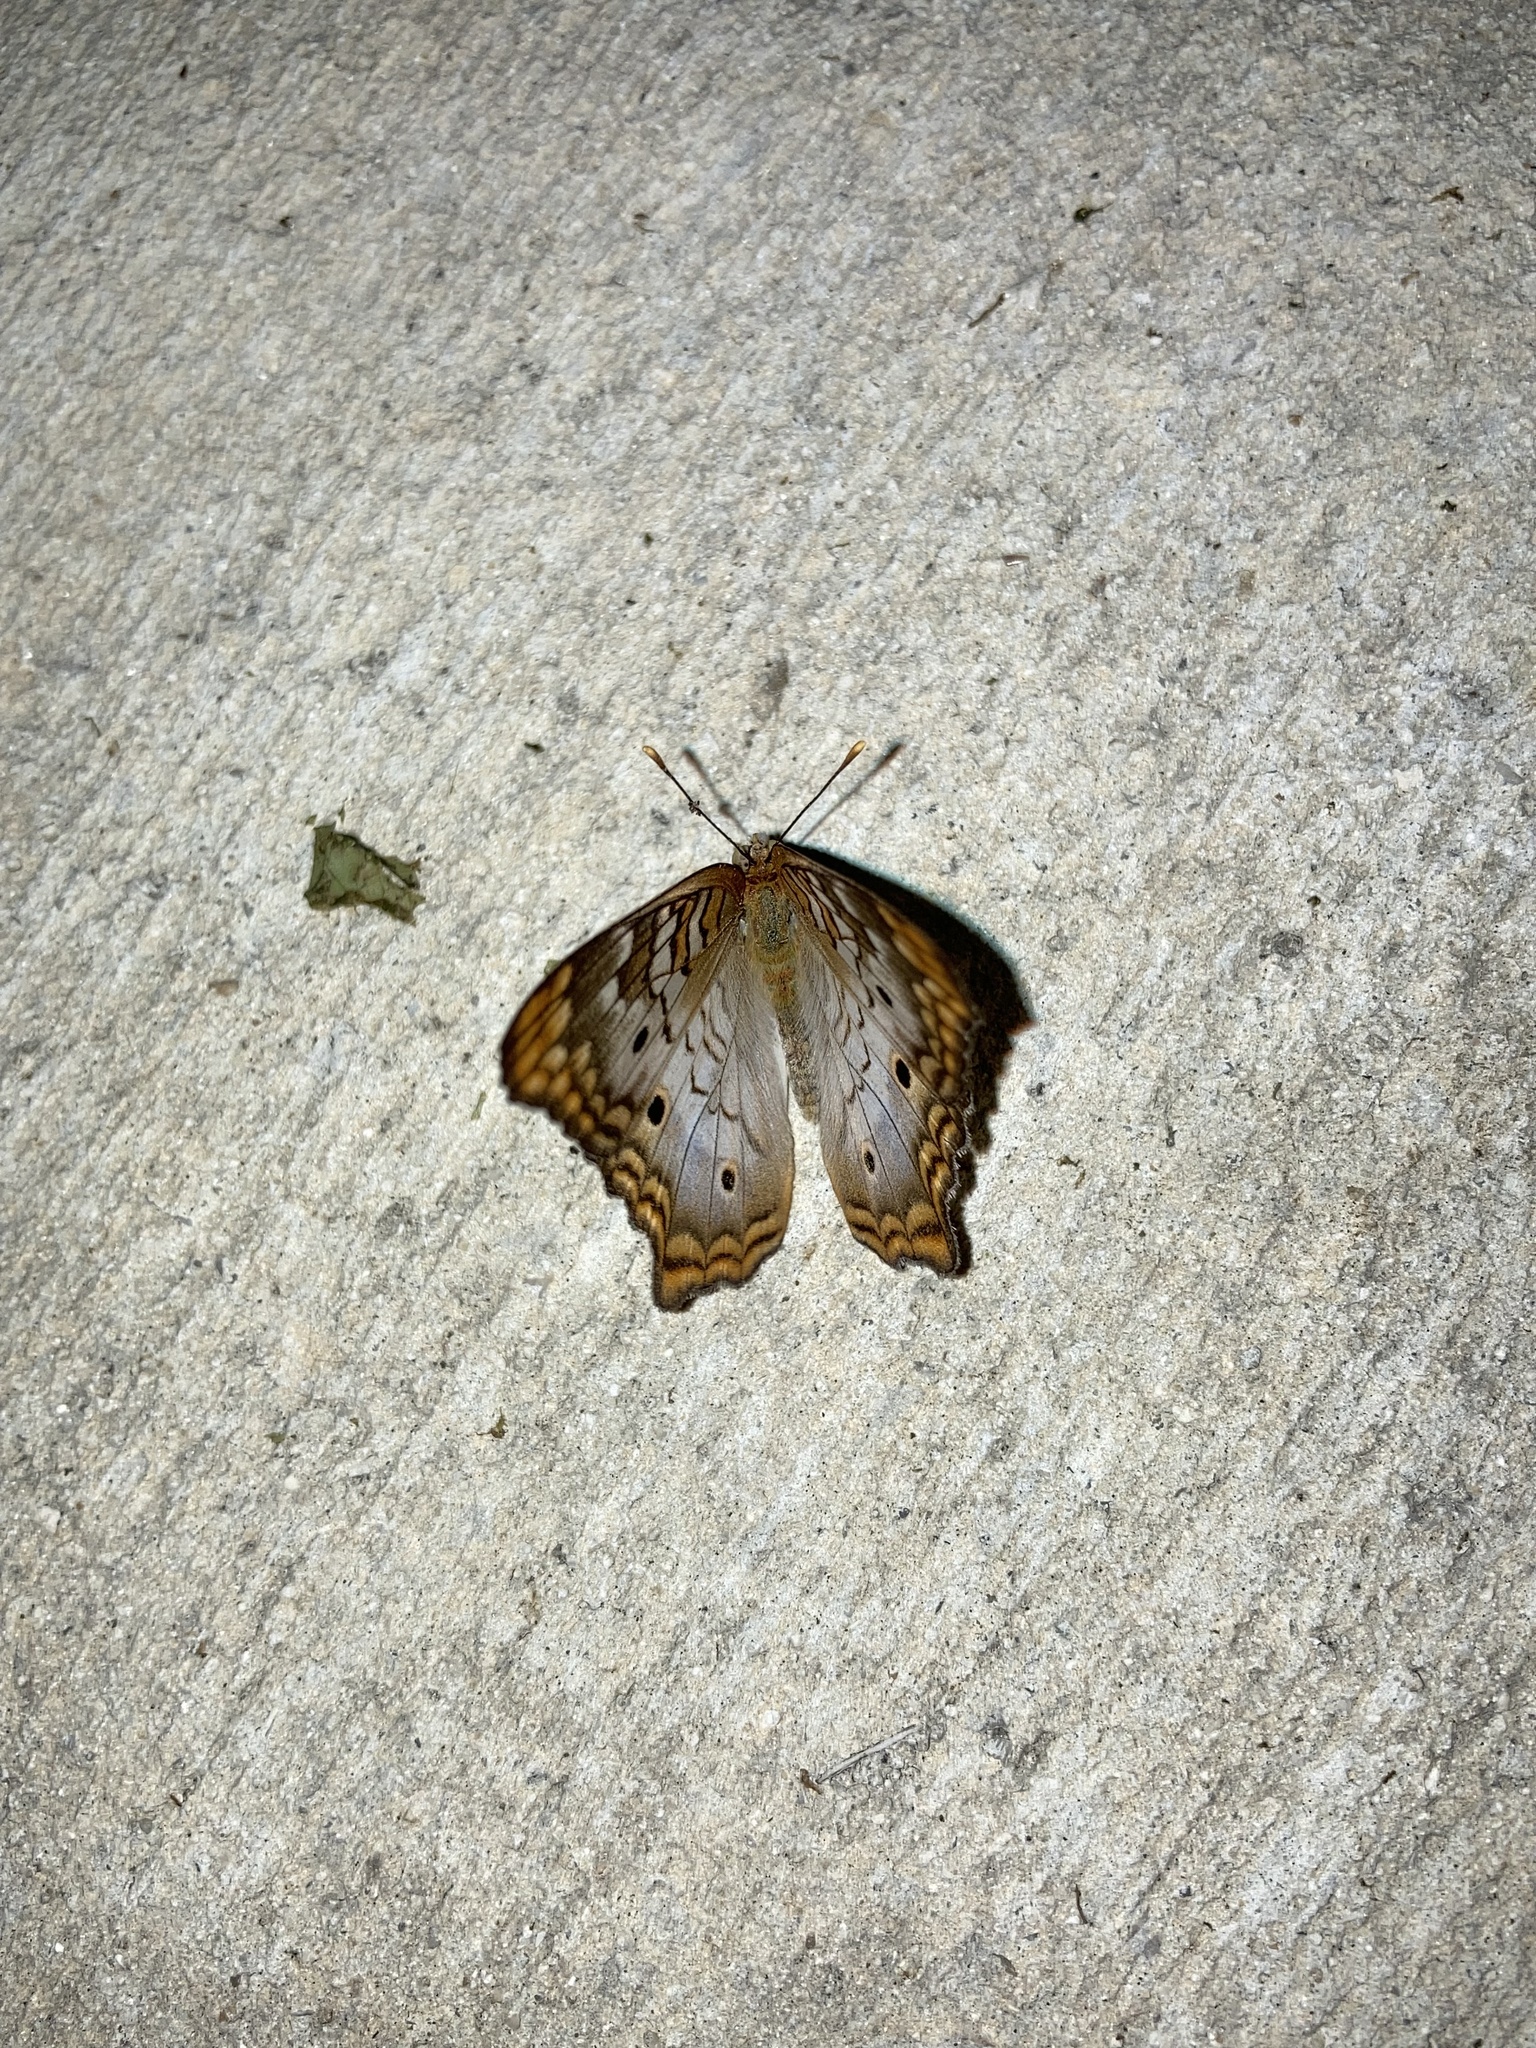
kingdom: Animalia
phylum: Arthropoda
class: Insecta
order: Lepidoptera
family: Nymphalidae
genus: Anartia
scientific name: Anartia jatrophae
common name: White peacock
